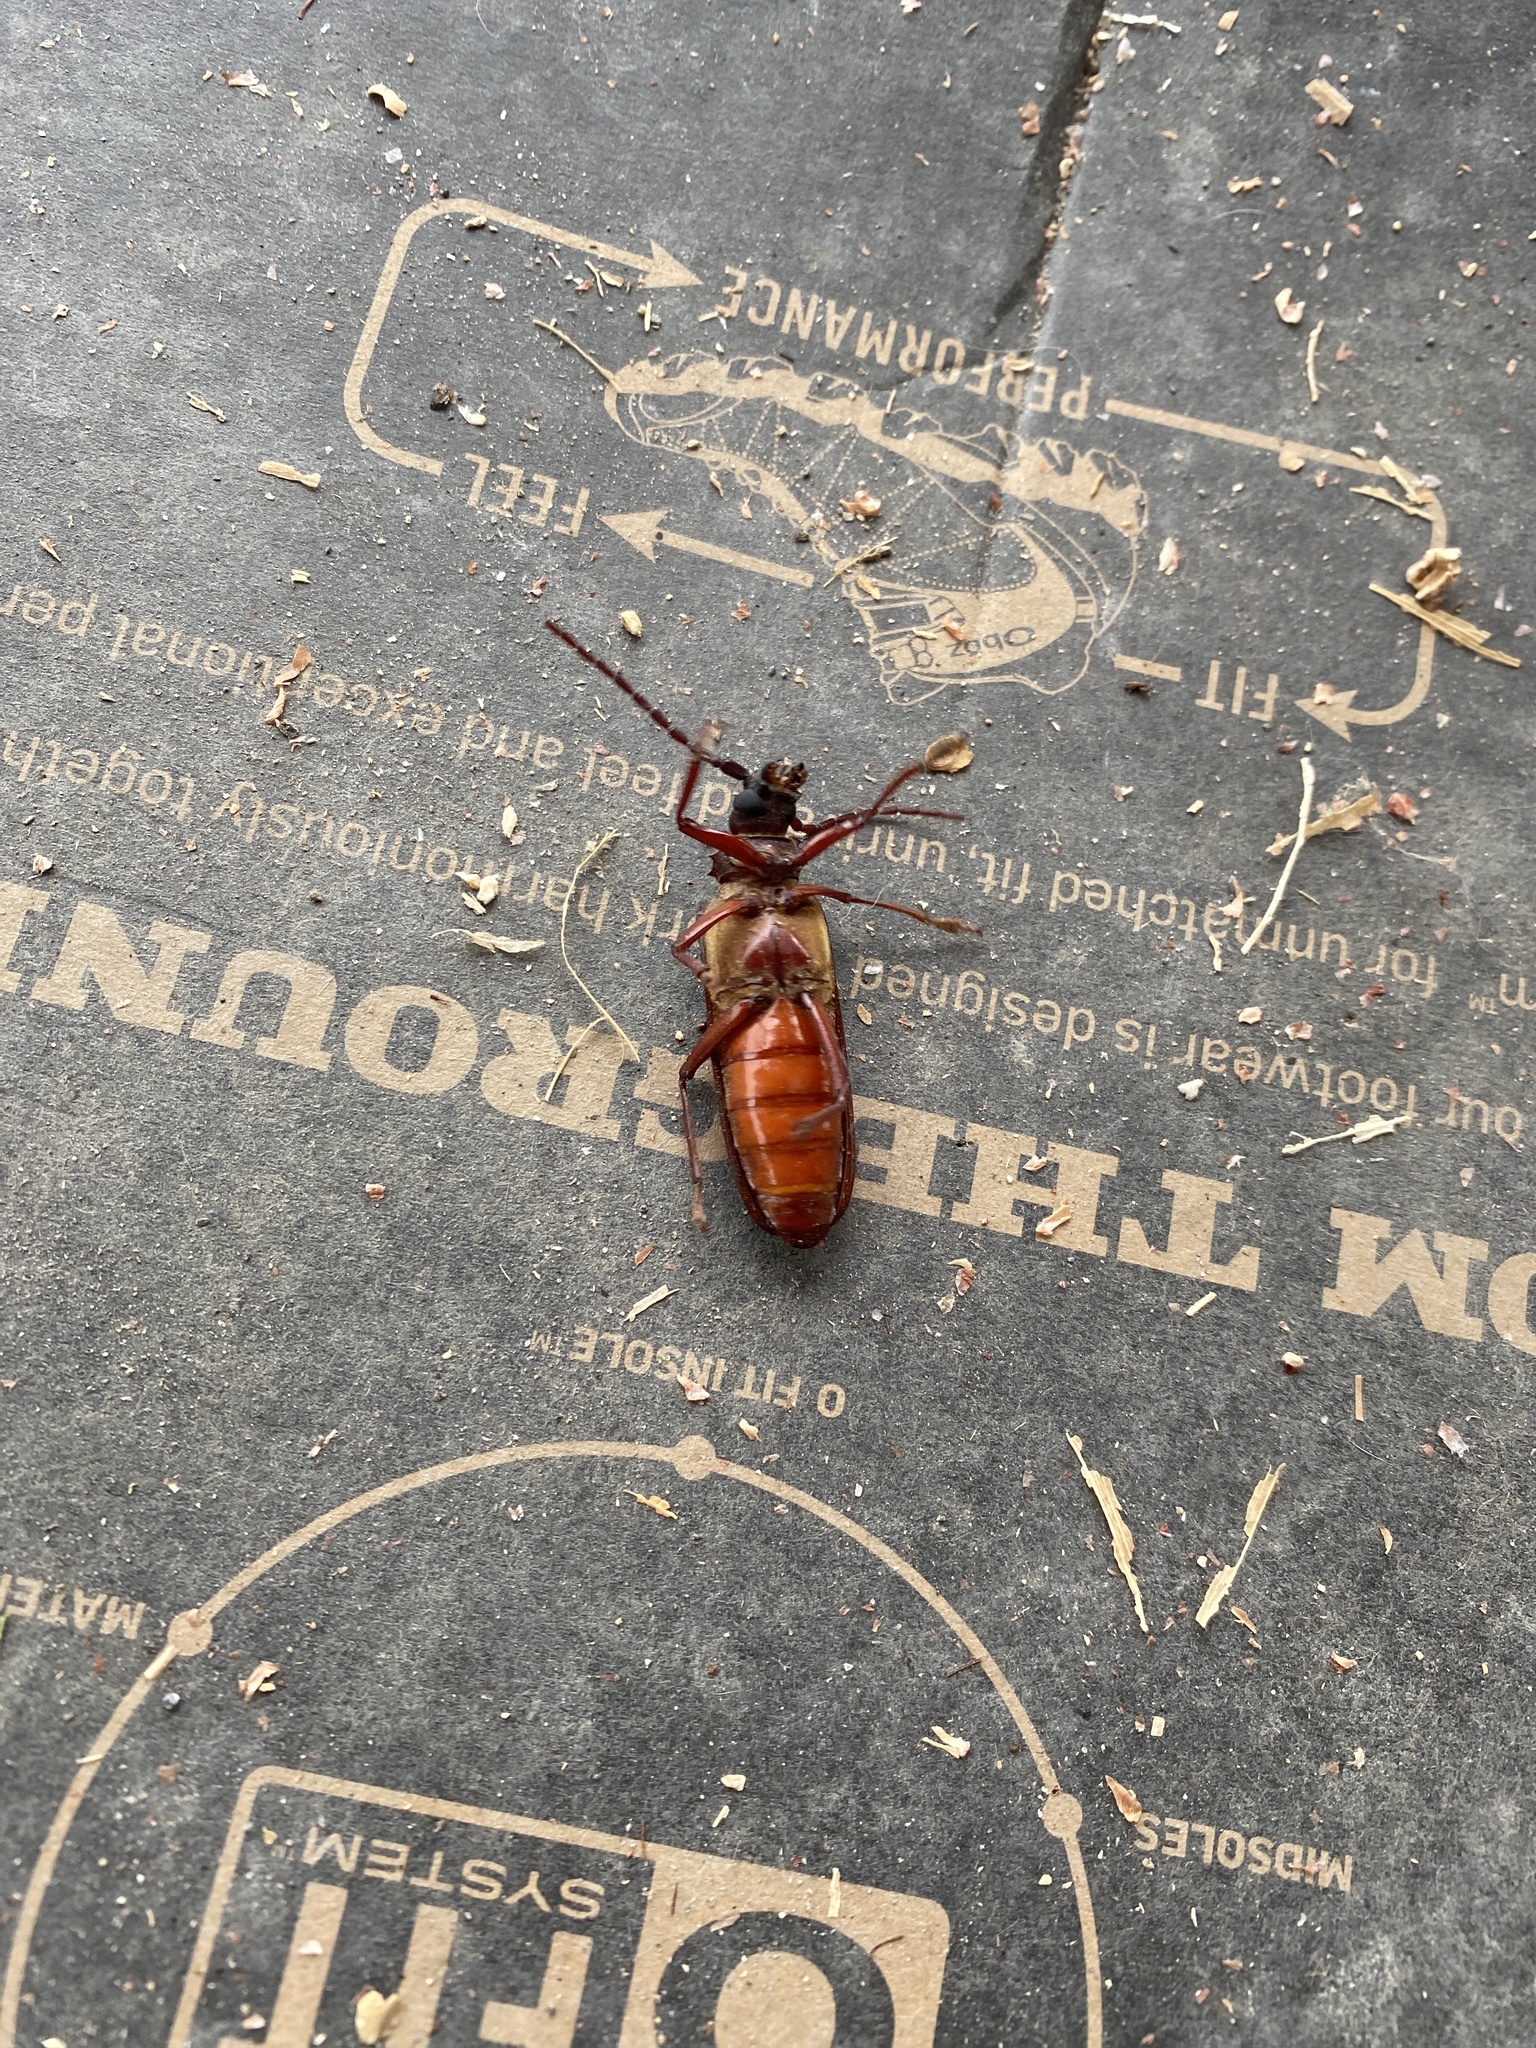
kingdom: Animalia
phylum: Arthropoda
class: Insecta
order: Coleoptera
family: Cerambycidae
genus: Orthosoma
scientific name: Orthosoma brunneum
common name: Brown prionid beetle
